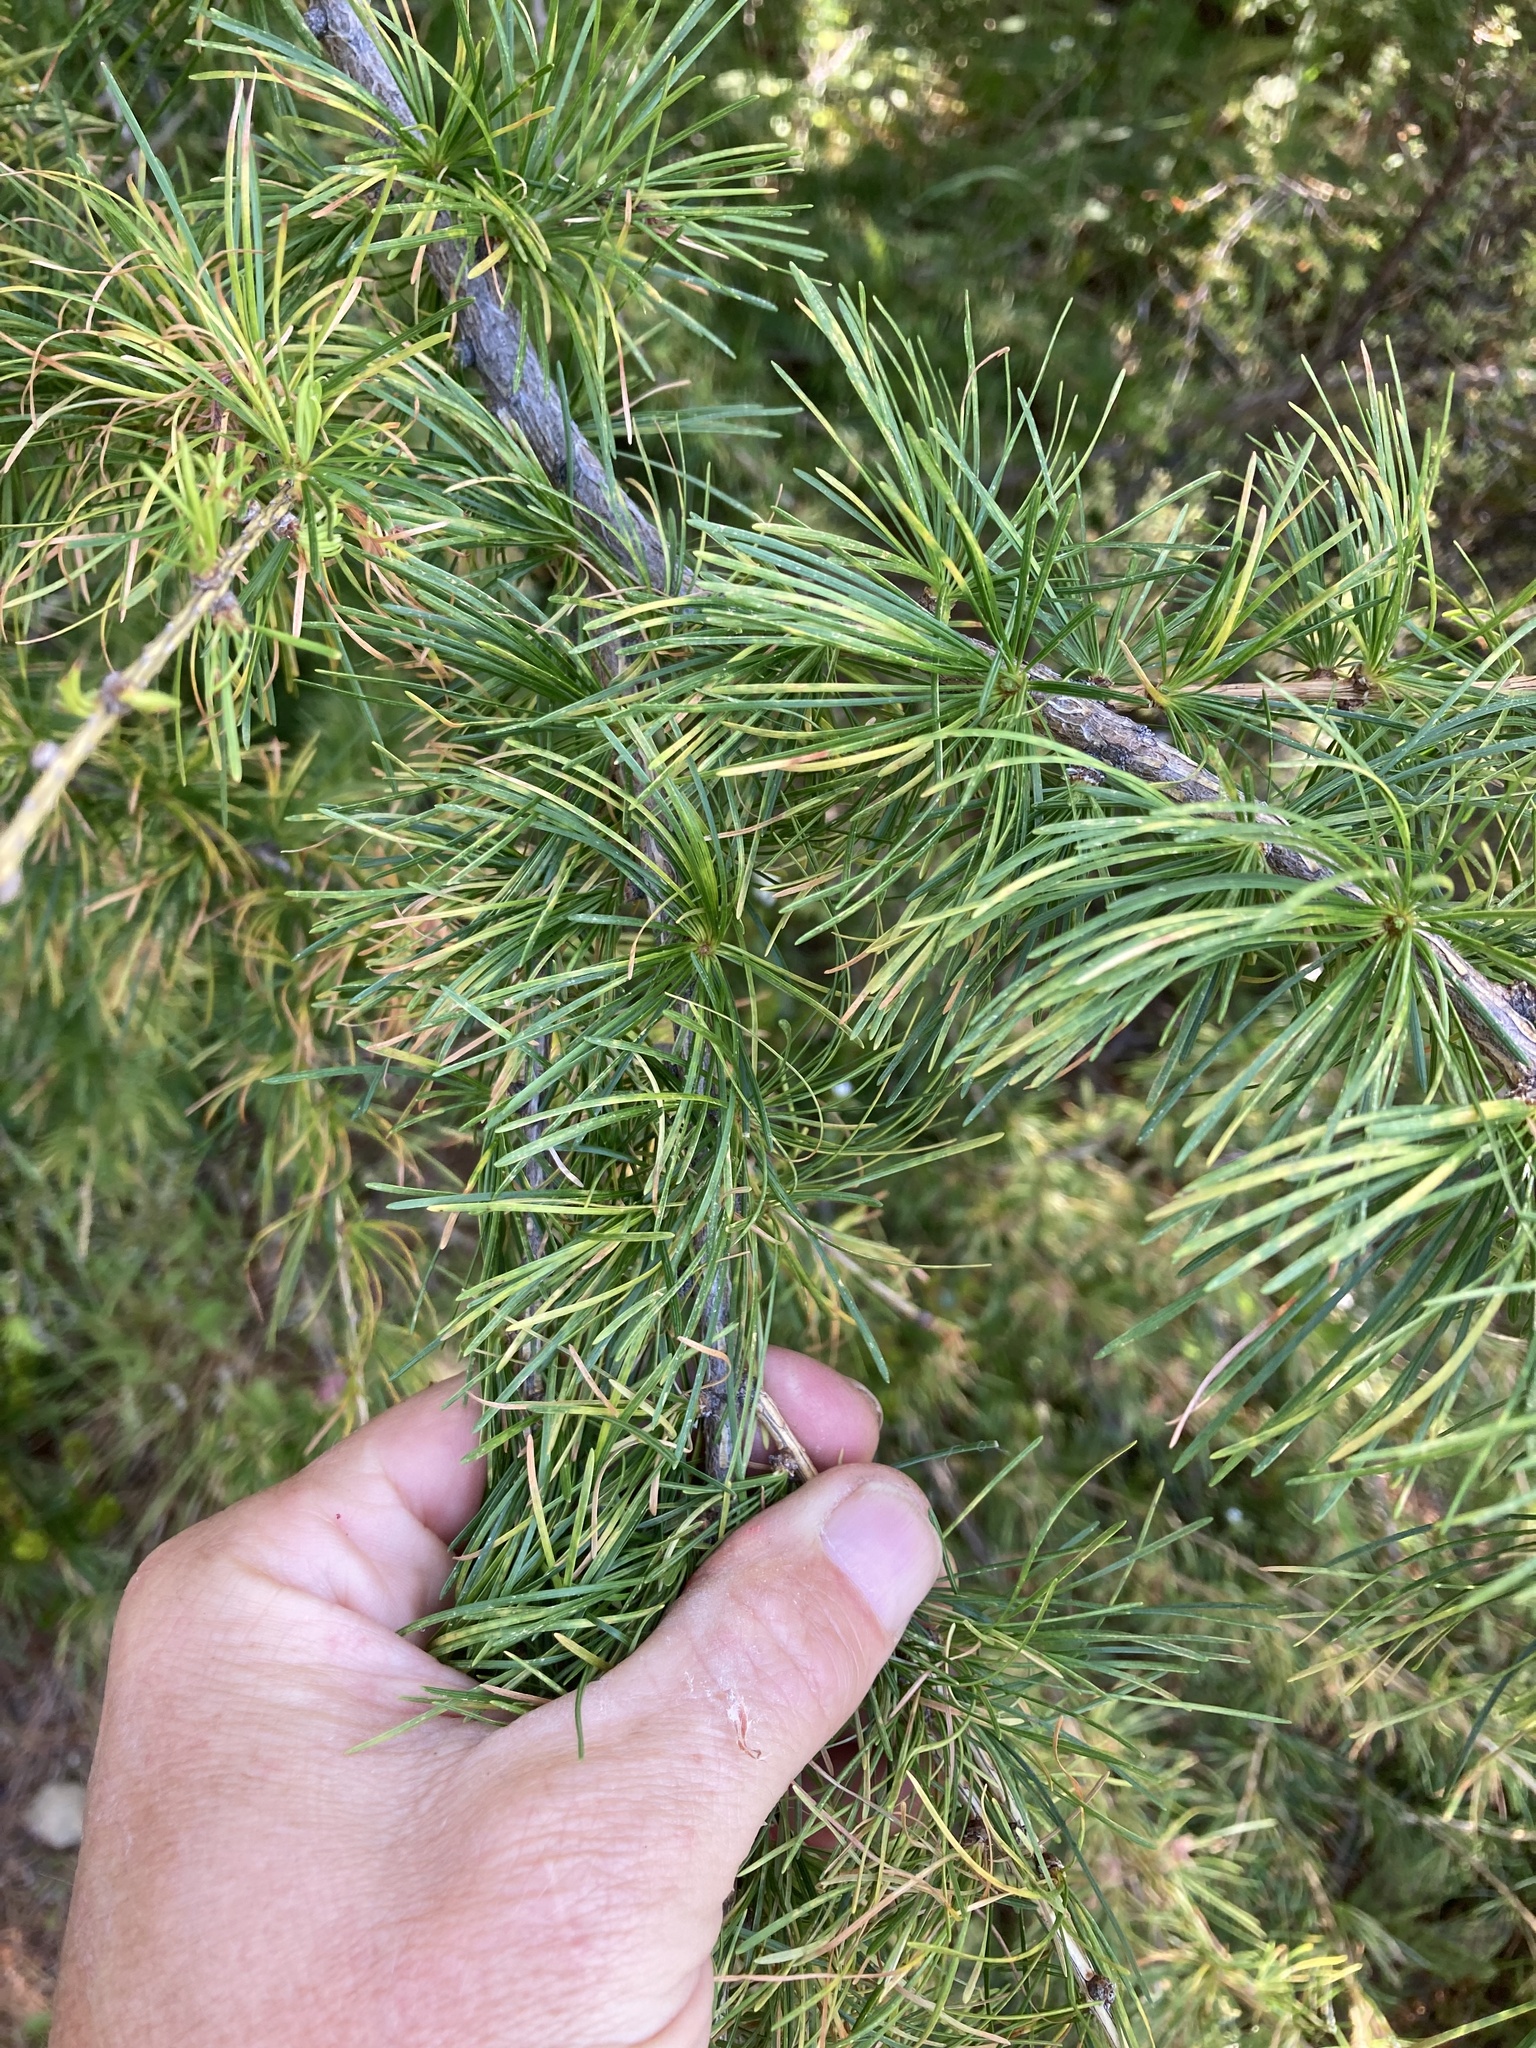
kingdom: Plantae
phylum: Tracheophyta
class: Pinopsida
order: Pinales
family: Pinaceae
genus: Larix
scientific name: Larix decidua
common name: European larch
